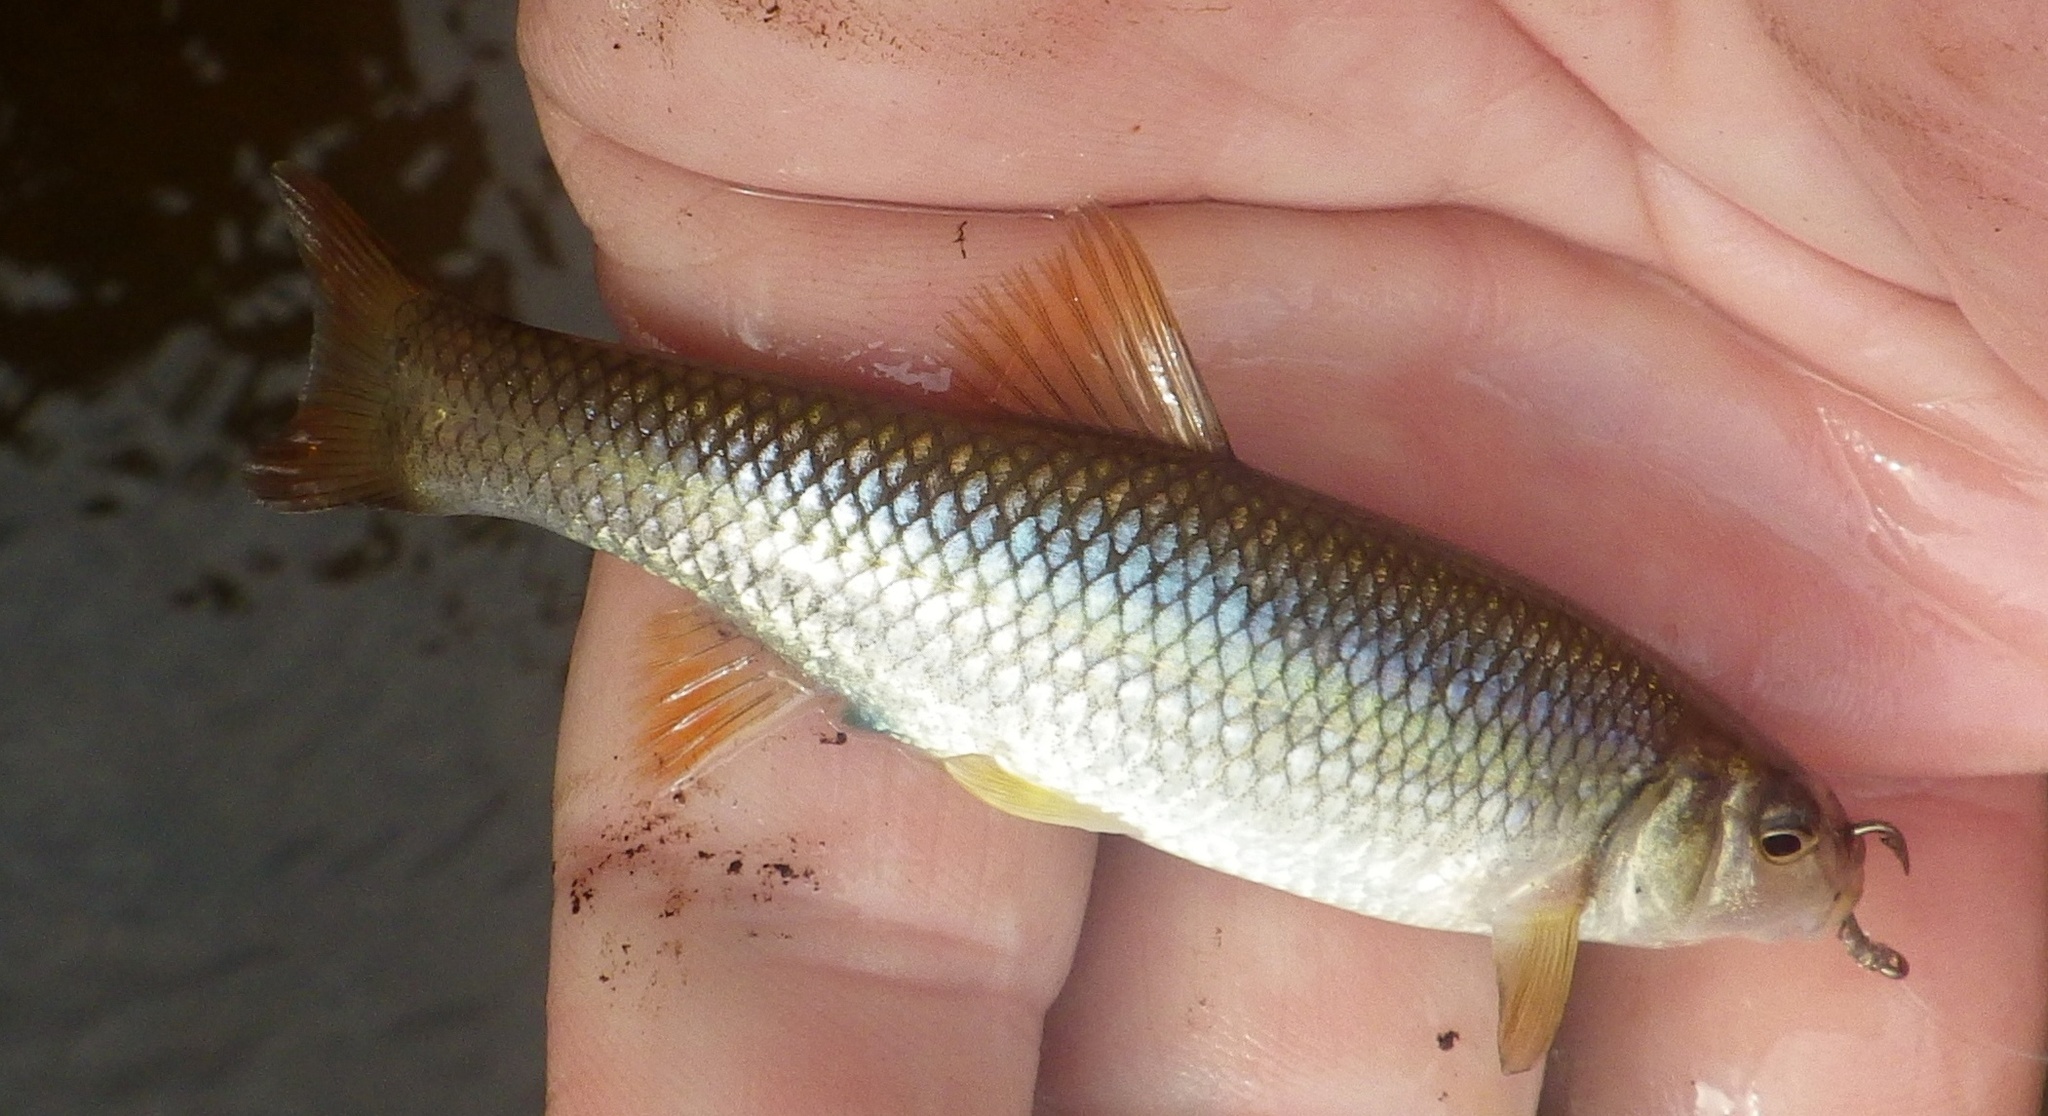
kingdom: Animalia
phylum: Chordata
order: Cypriniformes
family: Cyprinidae
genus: Nocomis
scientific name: Nocomis biguttatus
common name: Hornyhead chub
